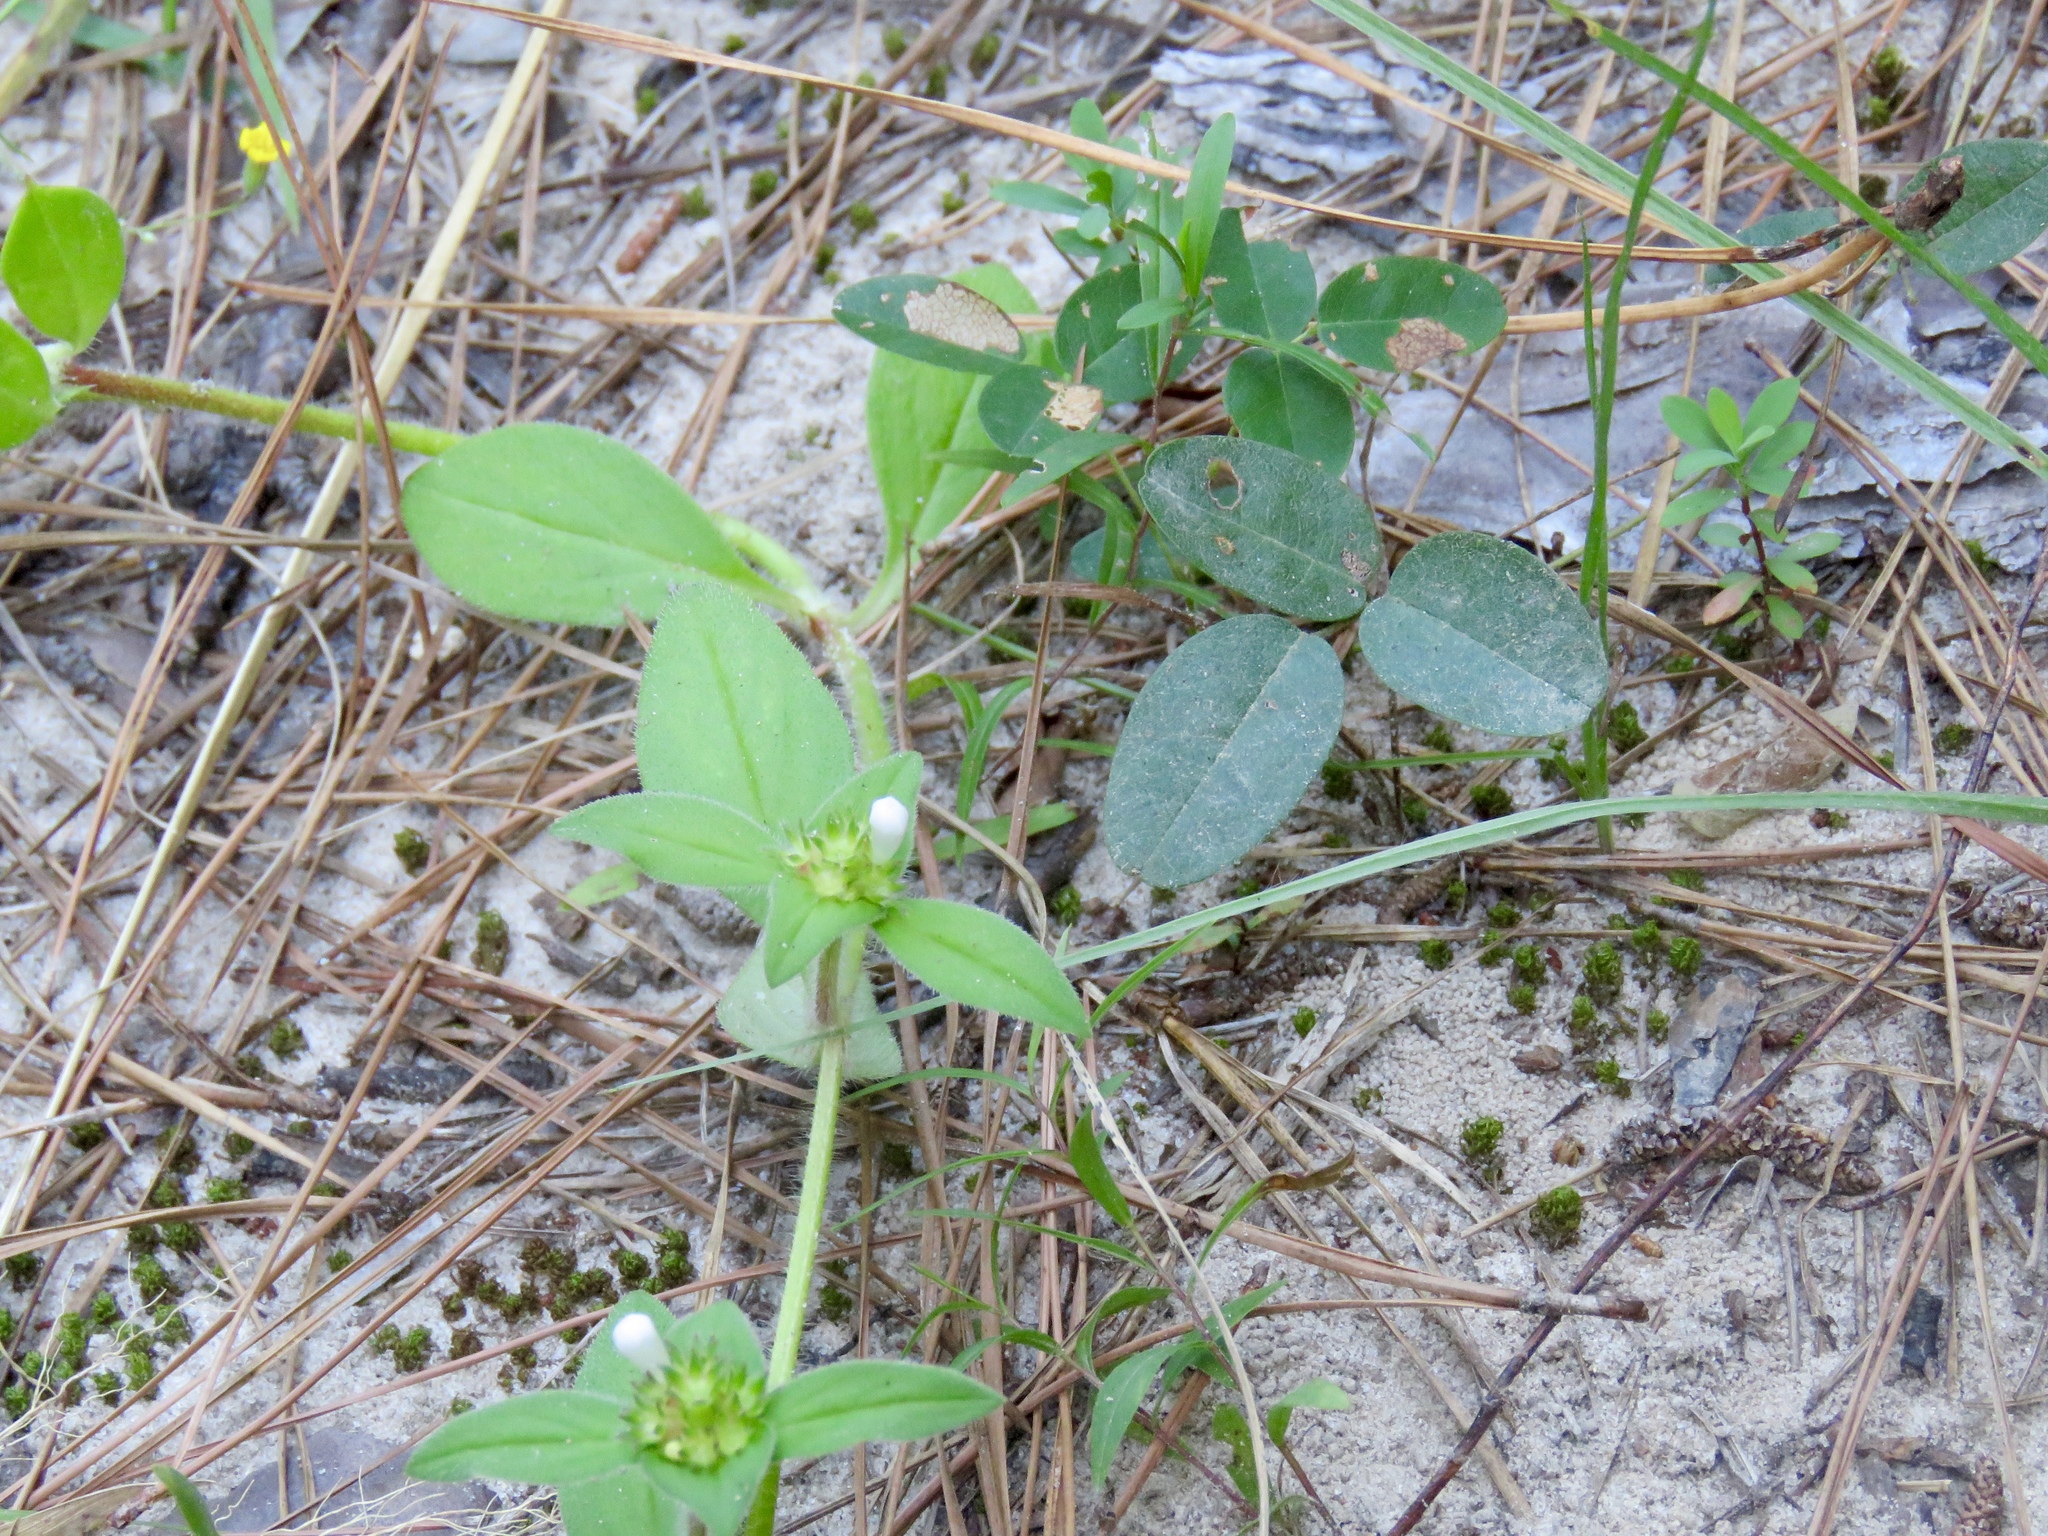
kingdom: Plantae
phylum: Tracheophyta
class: Magnoliopsida
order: Gentianales
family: Rubiaceae
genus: Richardia
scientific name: Richardia scabra
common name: Rough mexican clover
